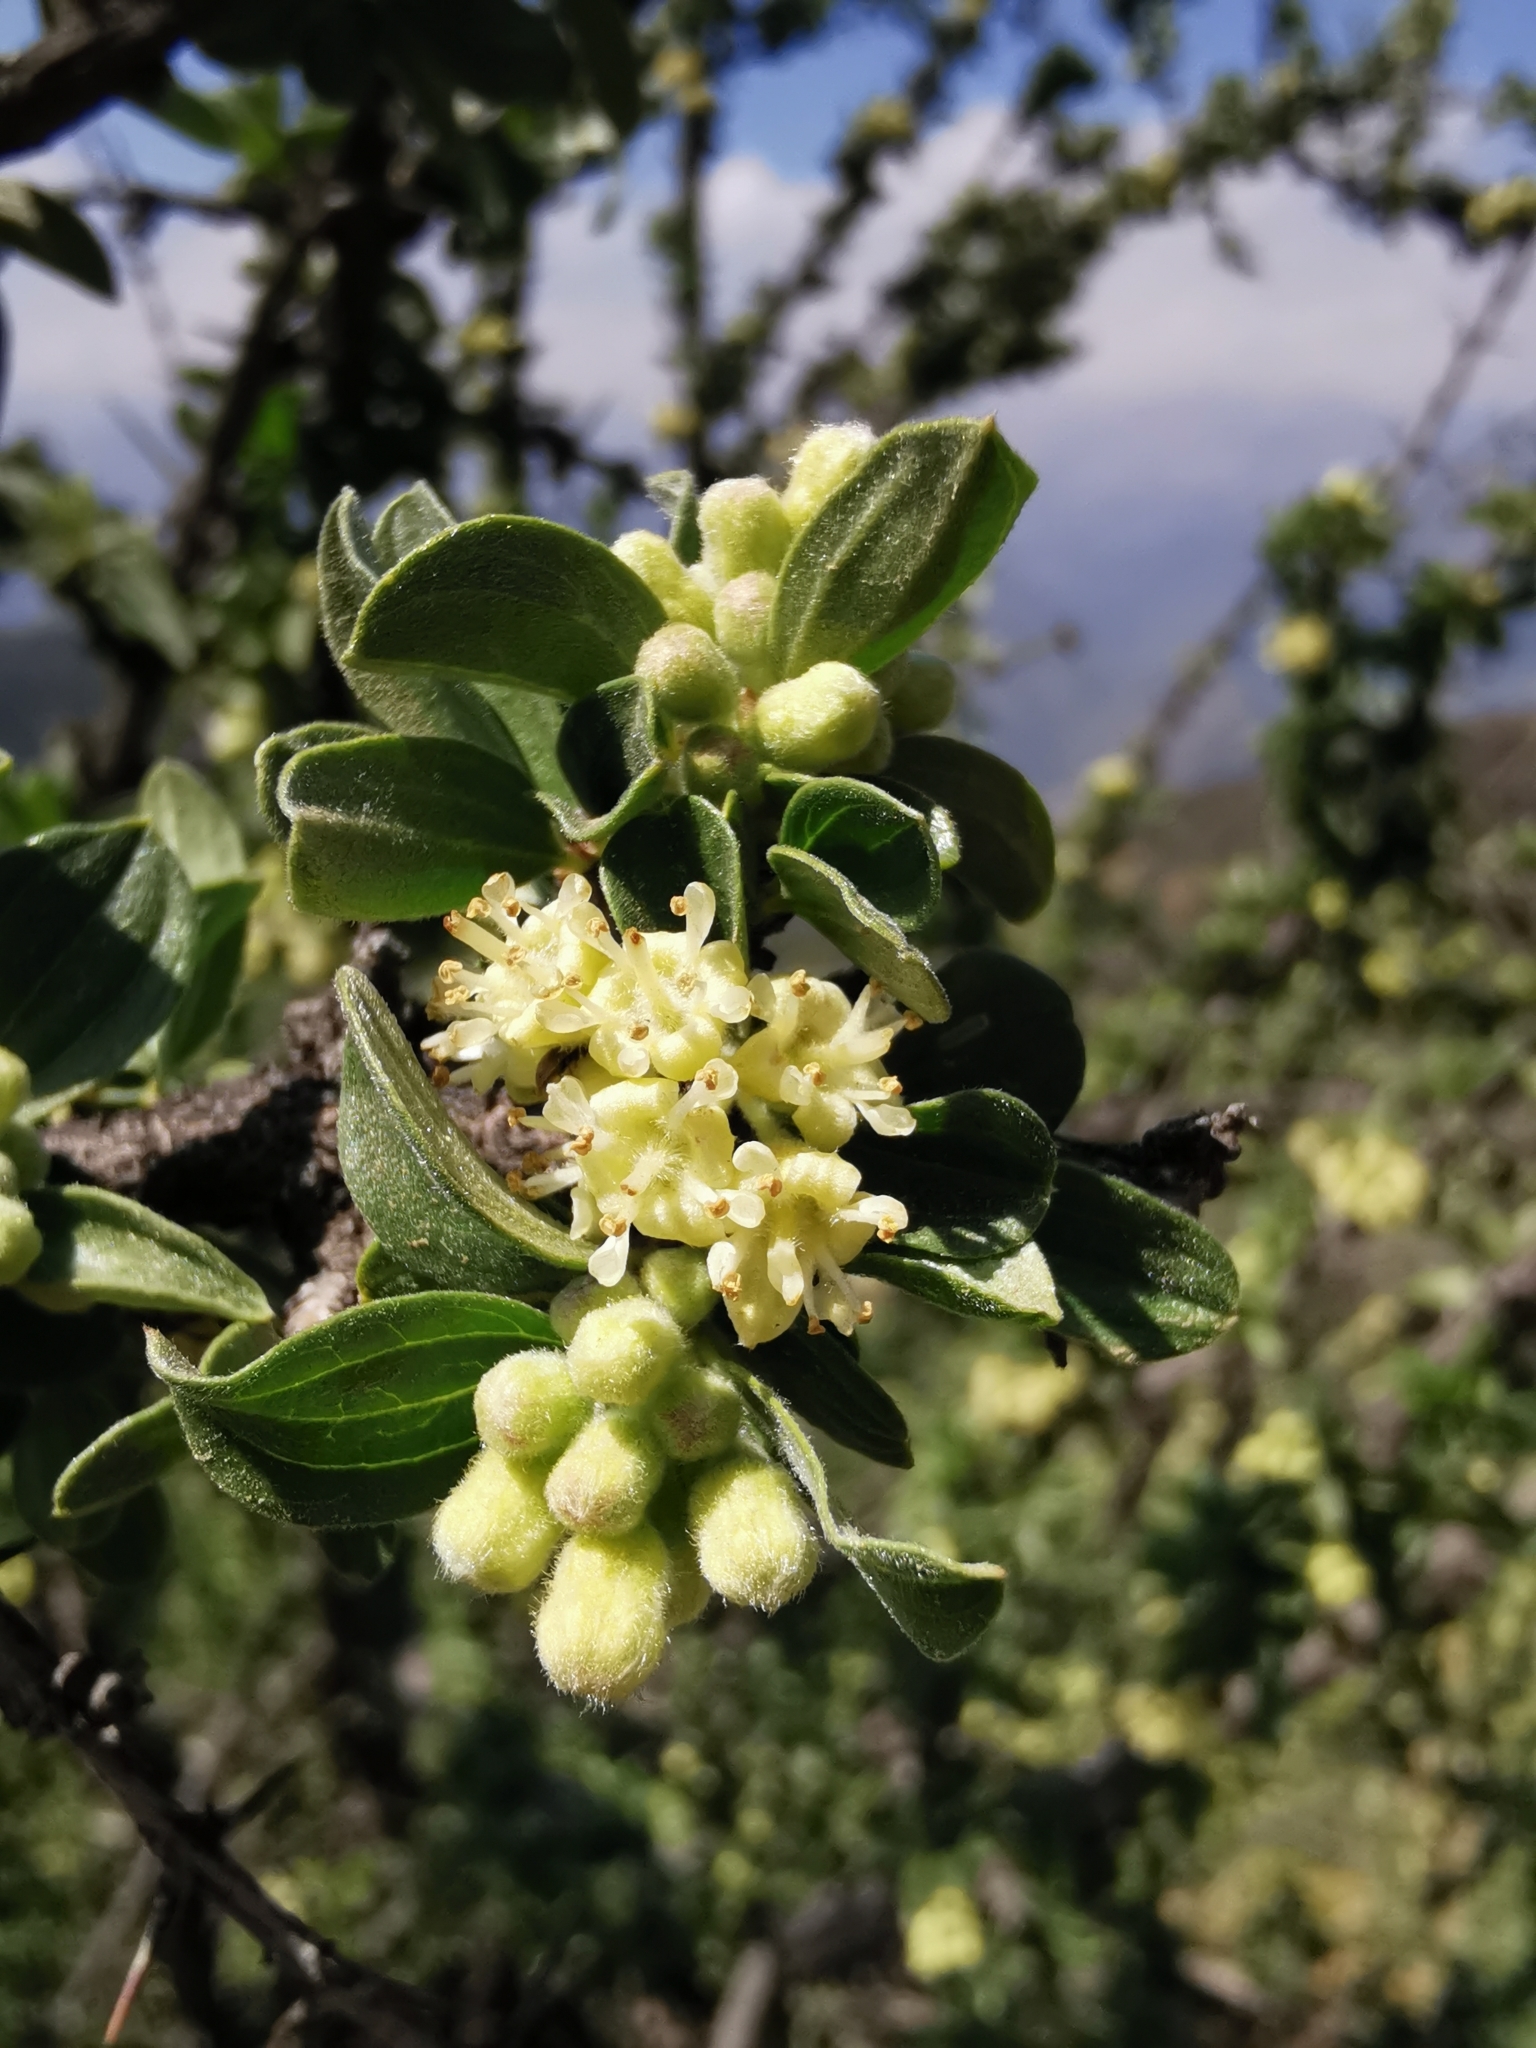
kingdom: Plantae
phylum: Tracheophyta
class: Magnoliopsida
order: Rosales
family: Rhamnaceae
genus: Trevoa
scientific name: Trevoa quinquenervia
